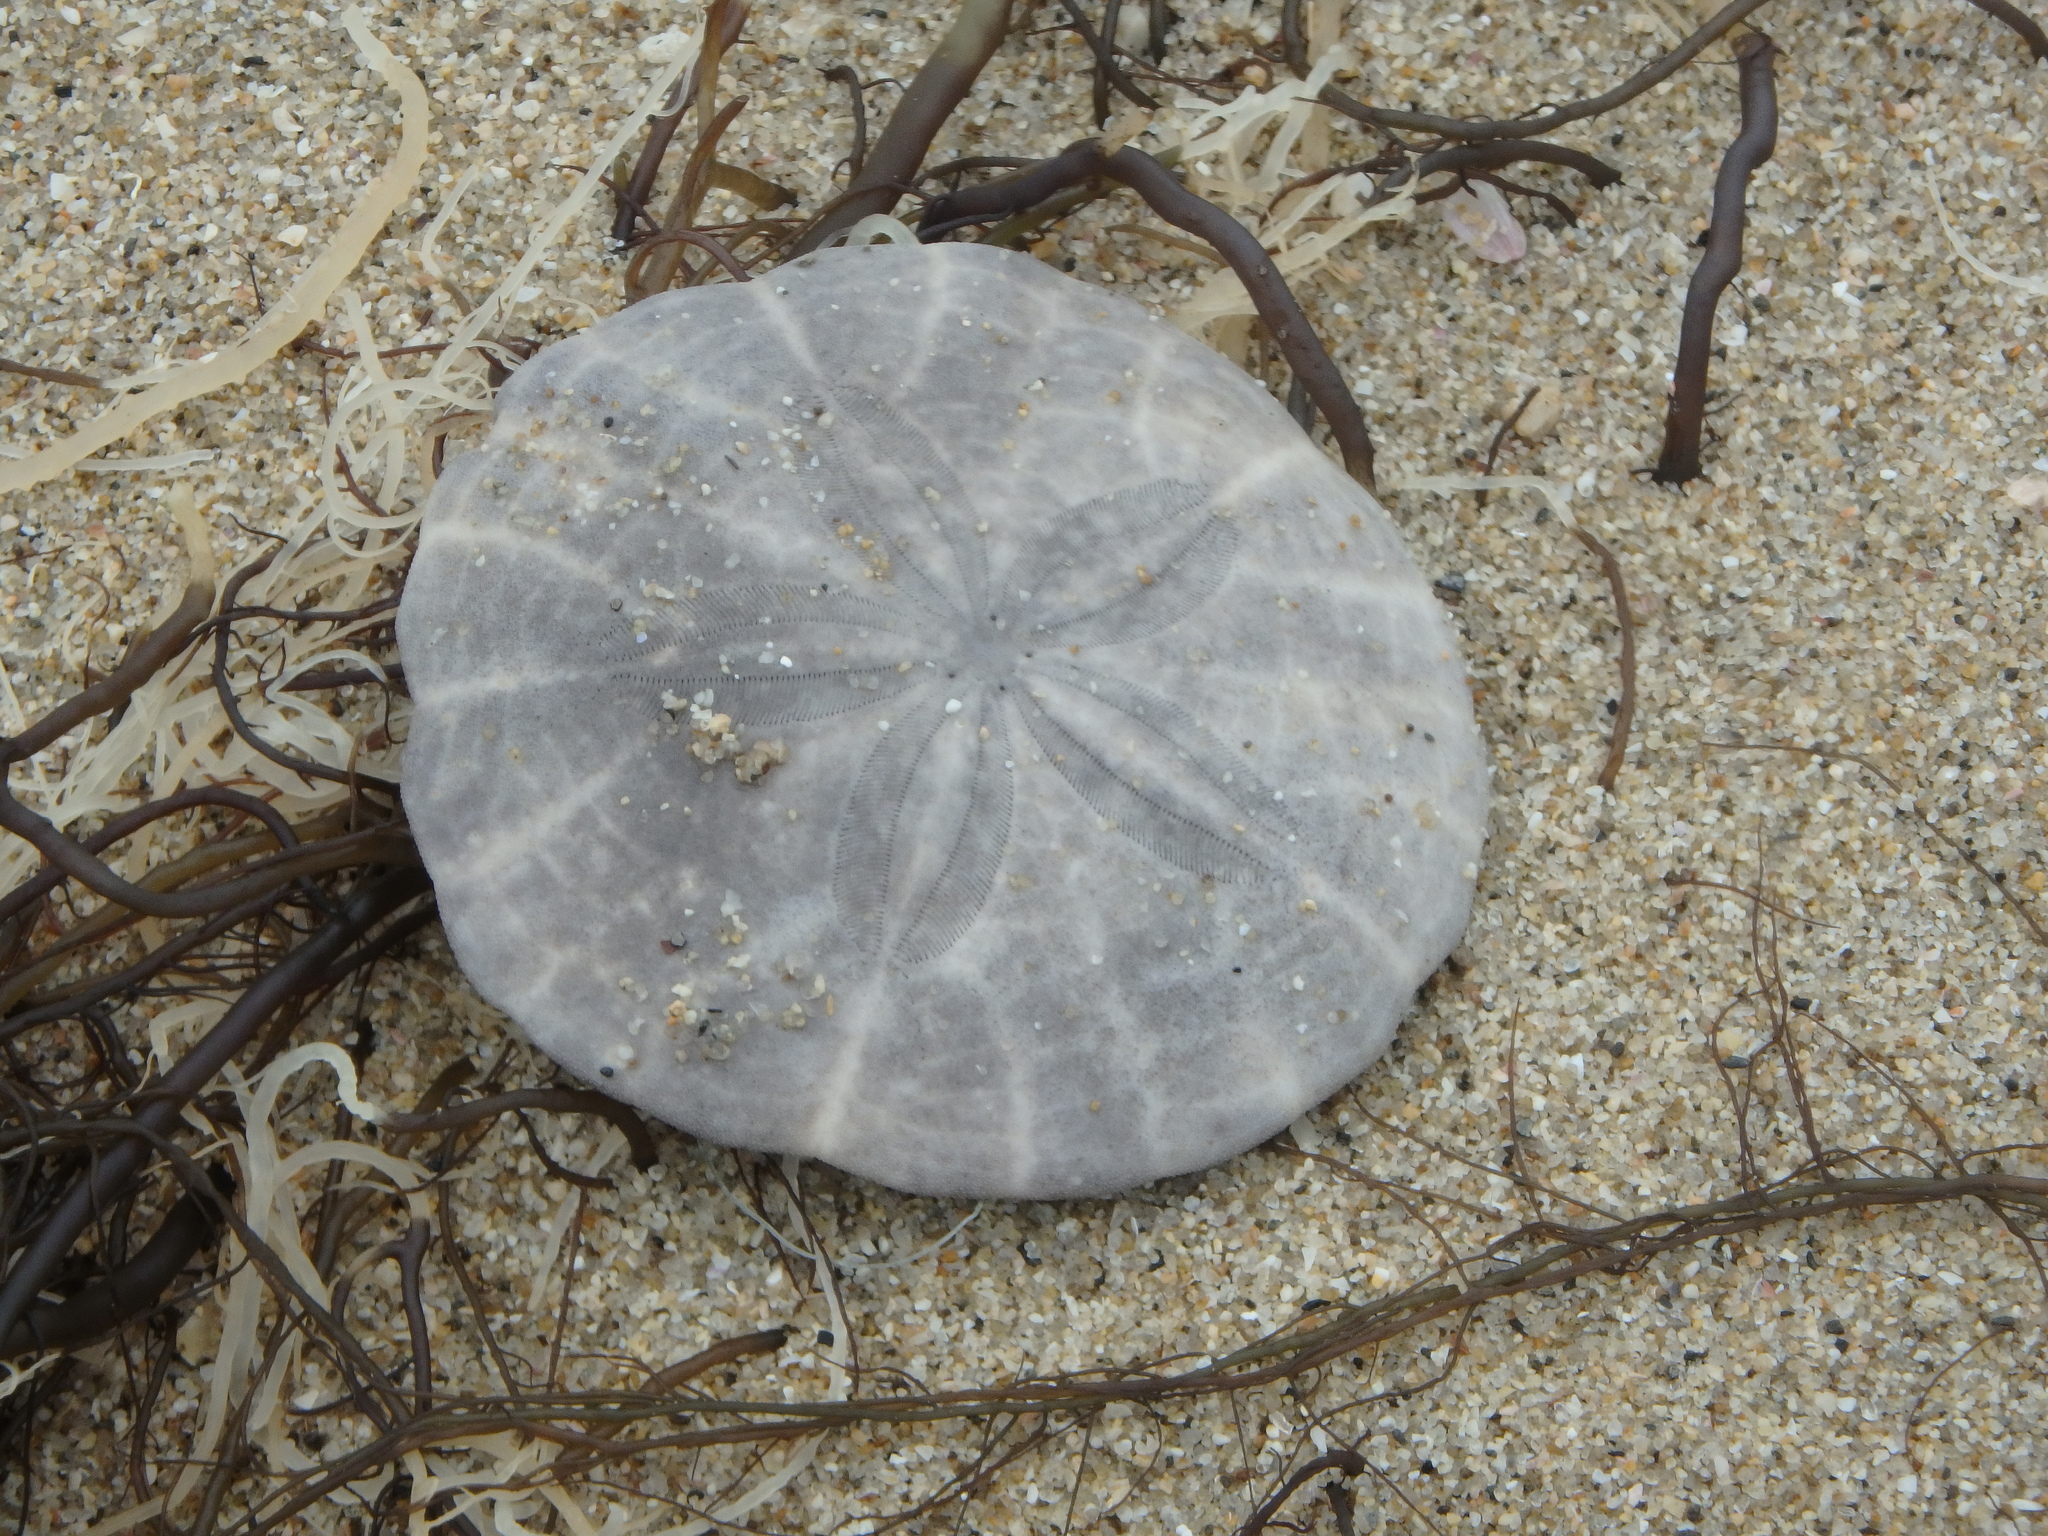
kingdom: Animalia
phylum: Echinodermata
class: Echinoidea
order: Echinolampadacea
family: Scutellidae
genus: Scaphechinus
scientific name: Scaphechinus mirabilis
